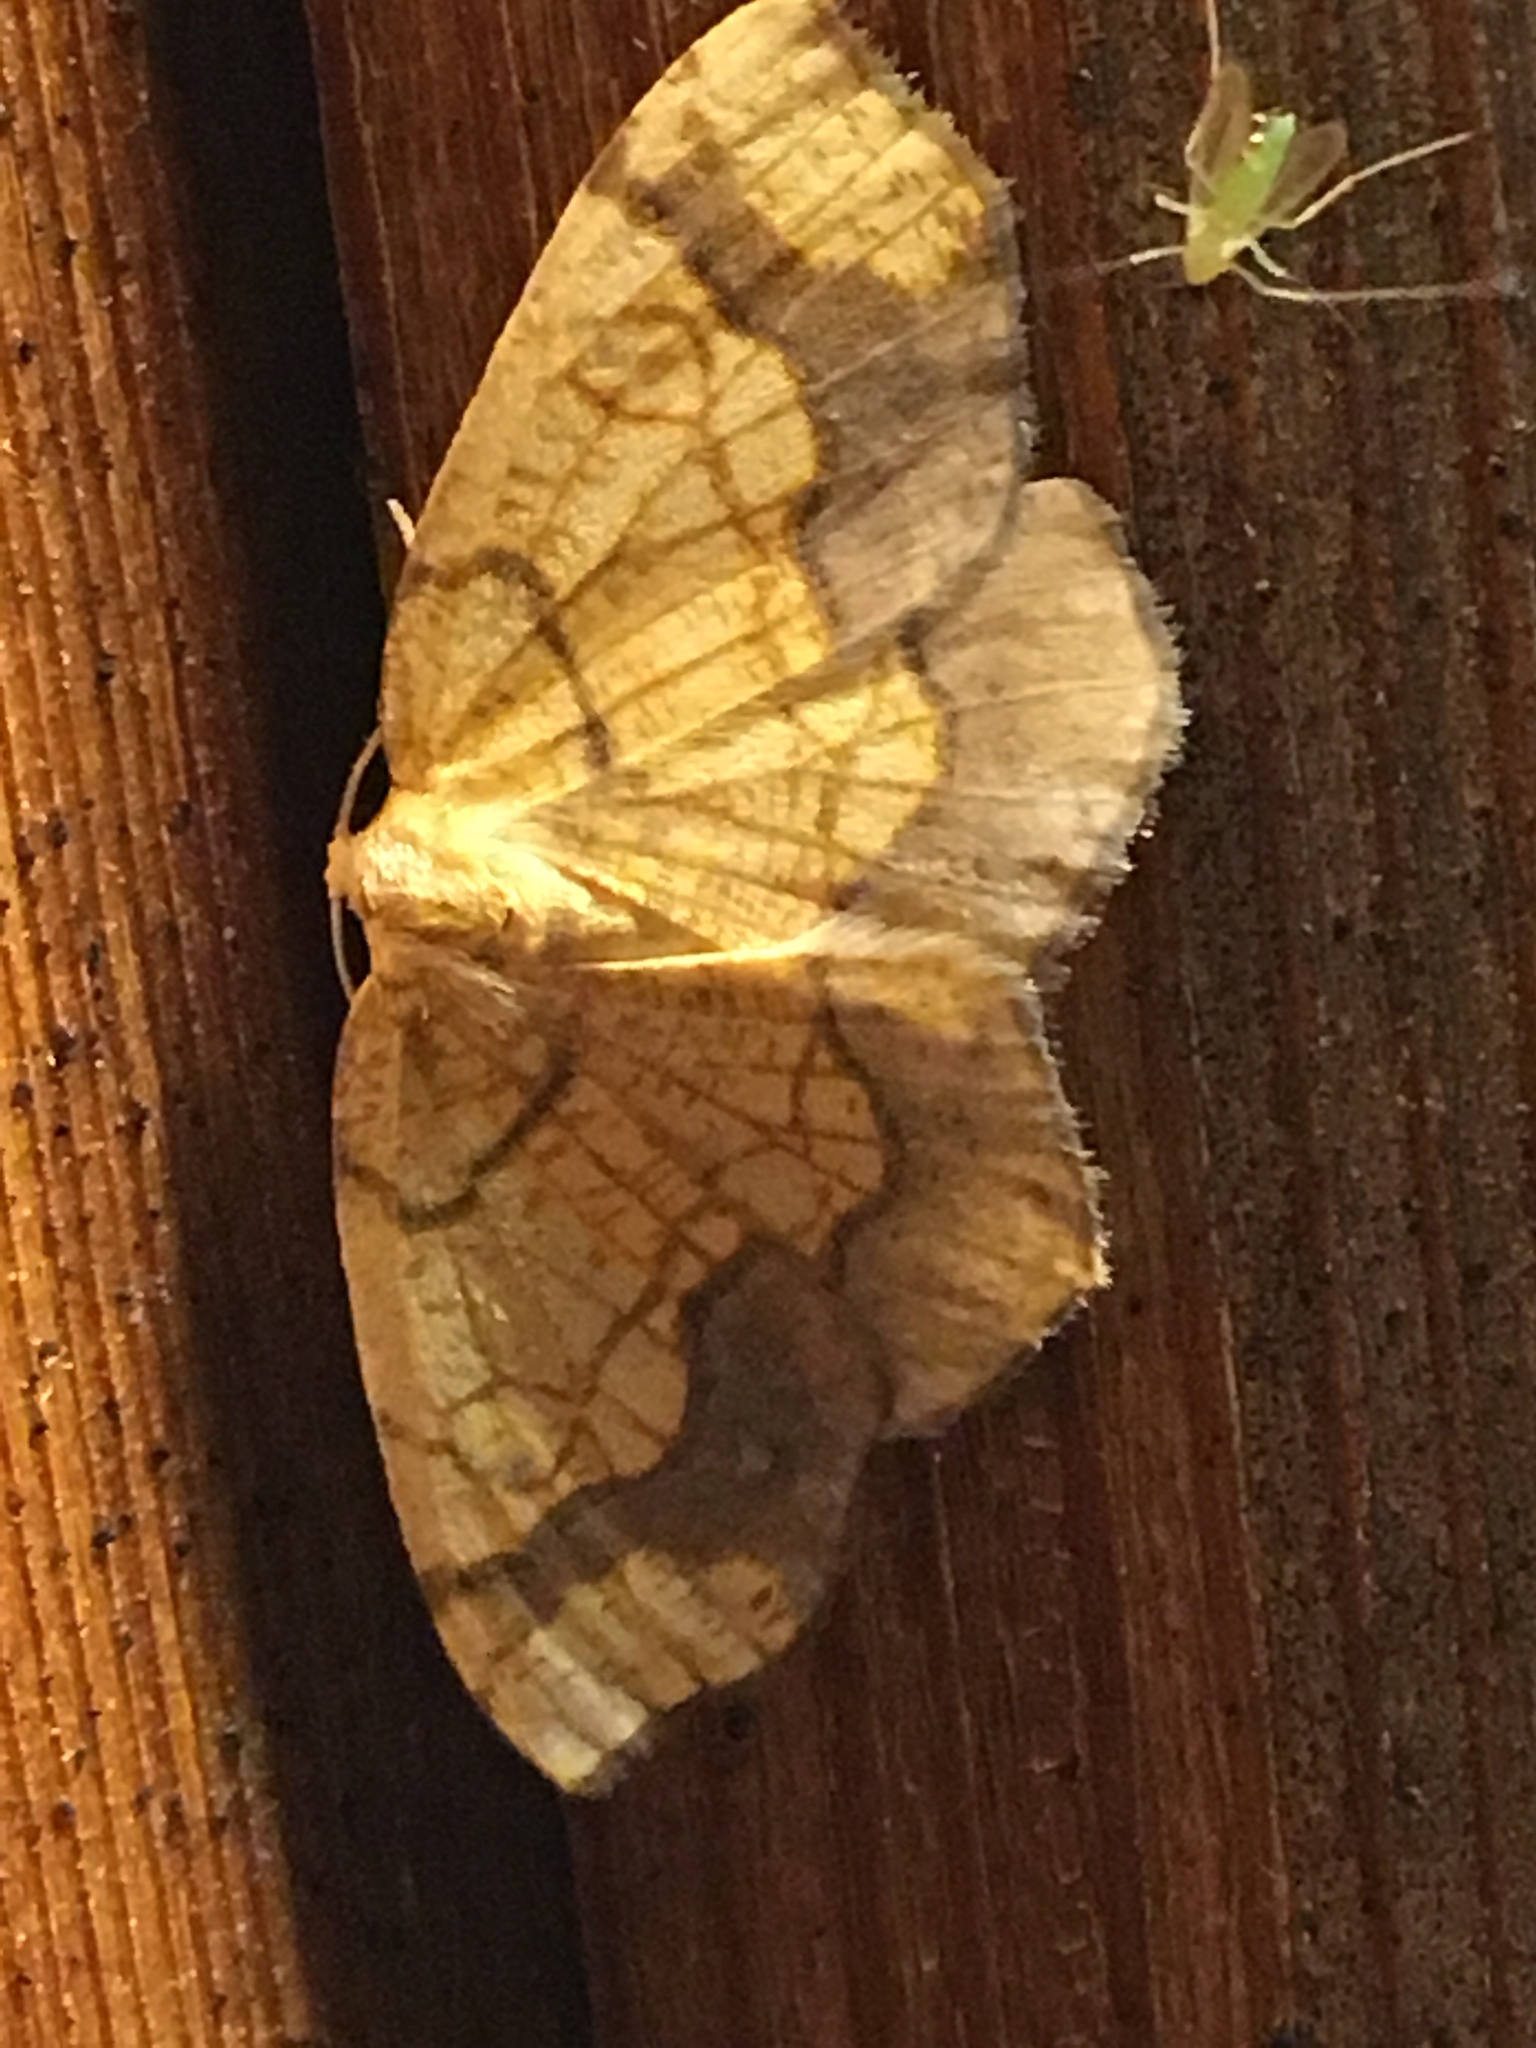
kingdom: Animalia
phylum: Arthropoda
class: Insecta
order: Lepidoptera
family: Geometridae
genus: Nematocampa
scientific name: Nematocampa resistaria
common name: Horned spanworm moth
